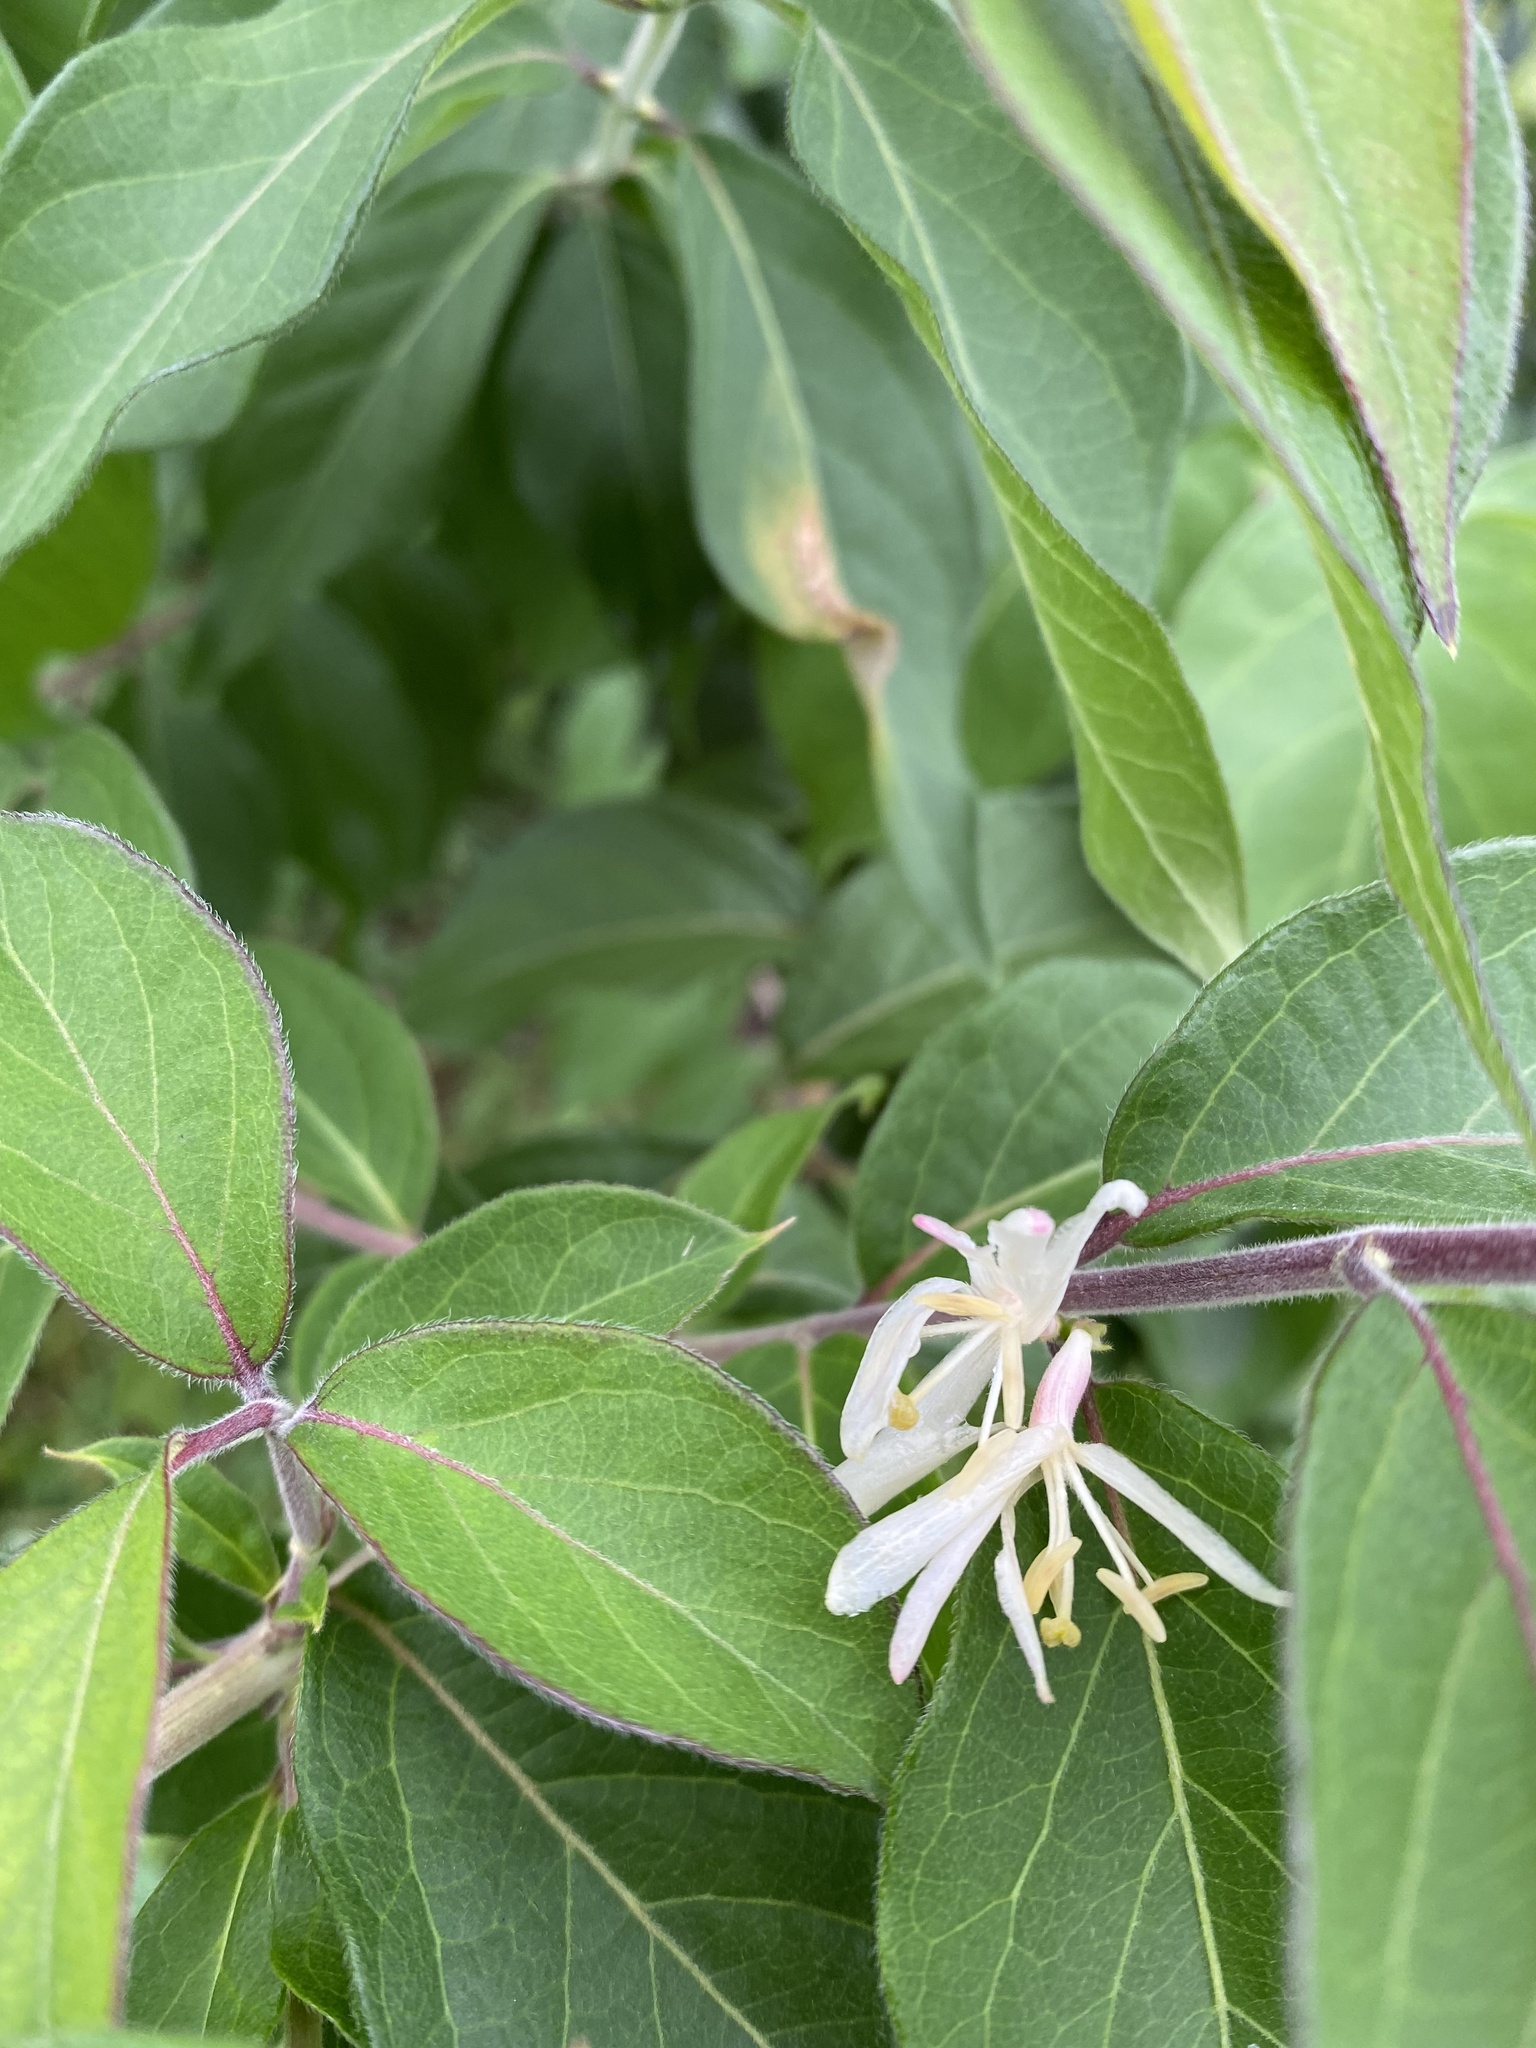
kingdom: Plantae
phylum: Tracheophyta
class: Magnoliopsida
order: Dipsacales
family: Caprifoliaceae
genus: Lonicera
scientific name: Lonicera maackii
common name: Amur honeysuckle
